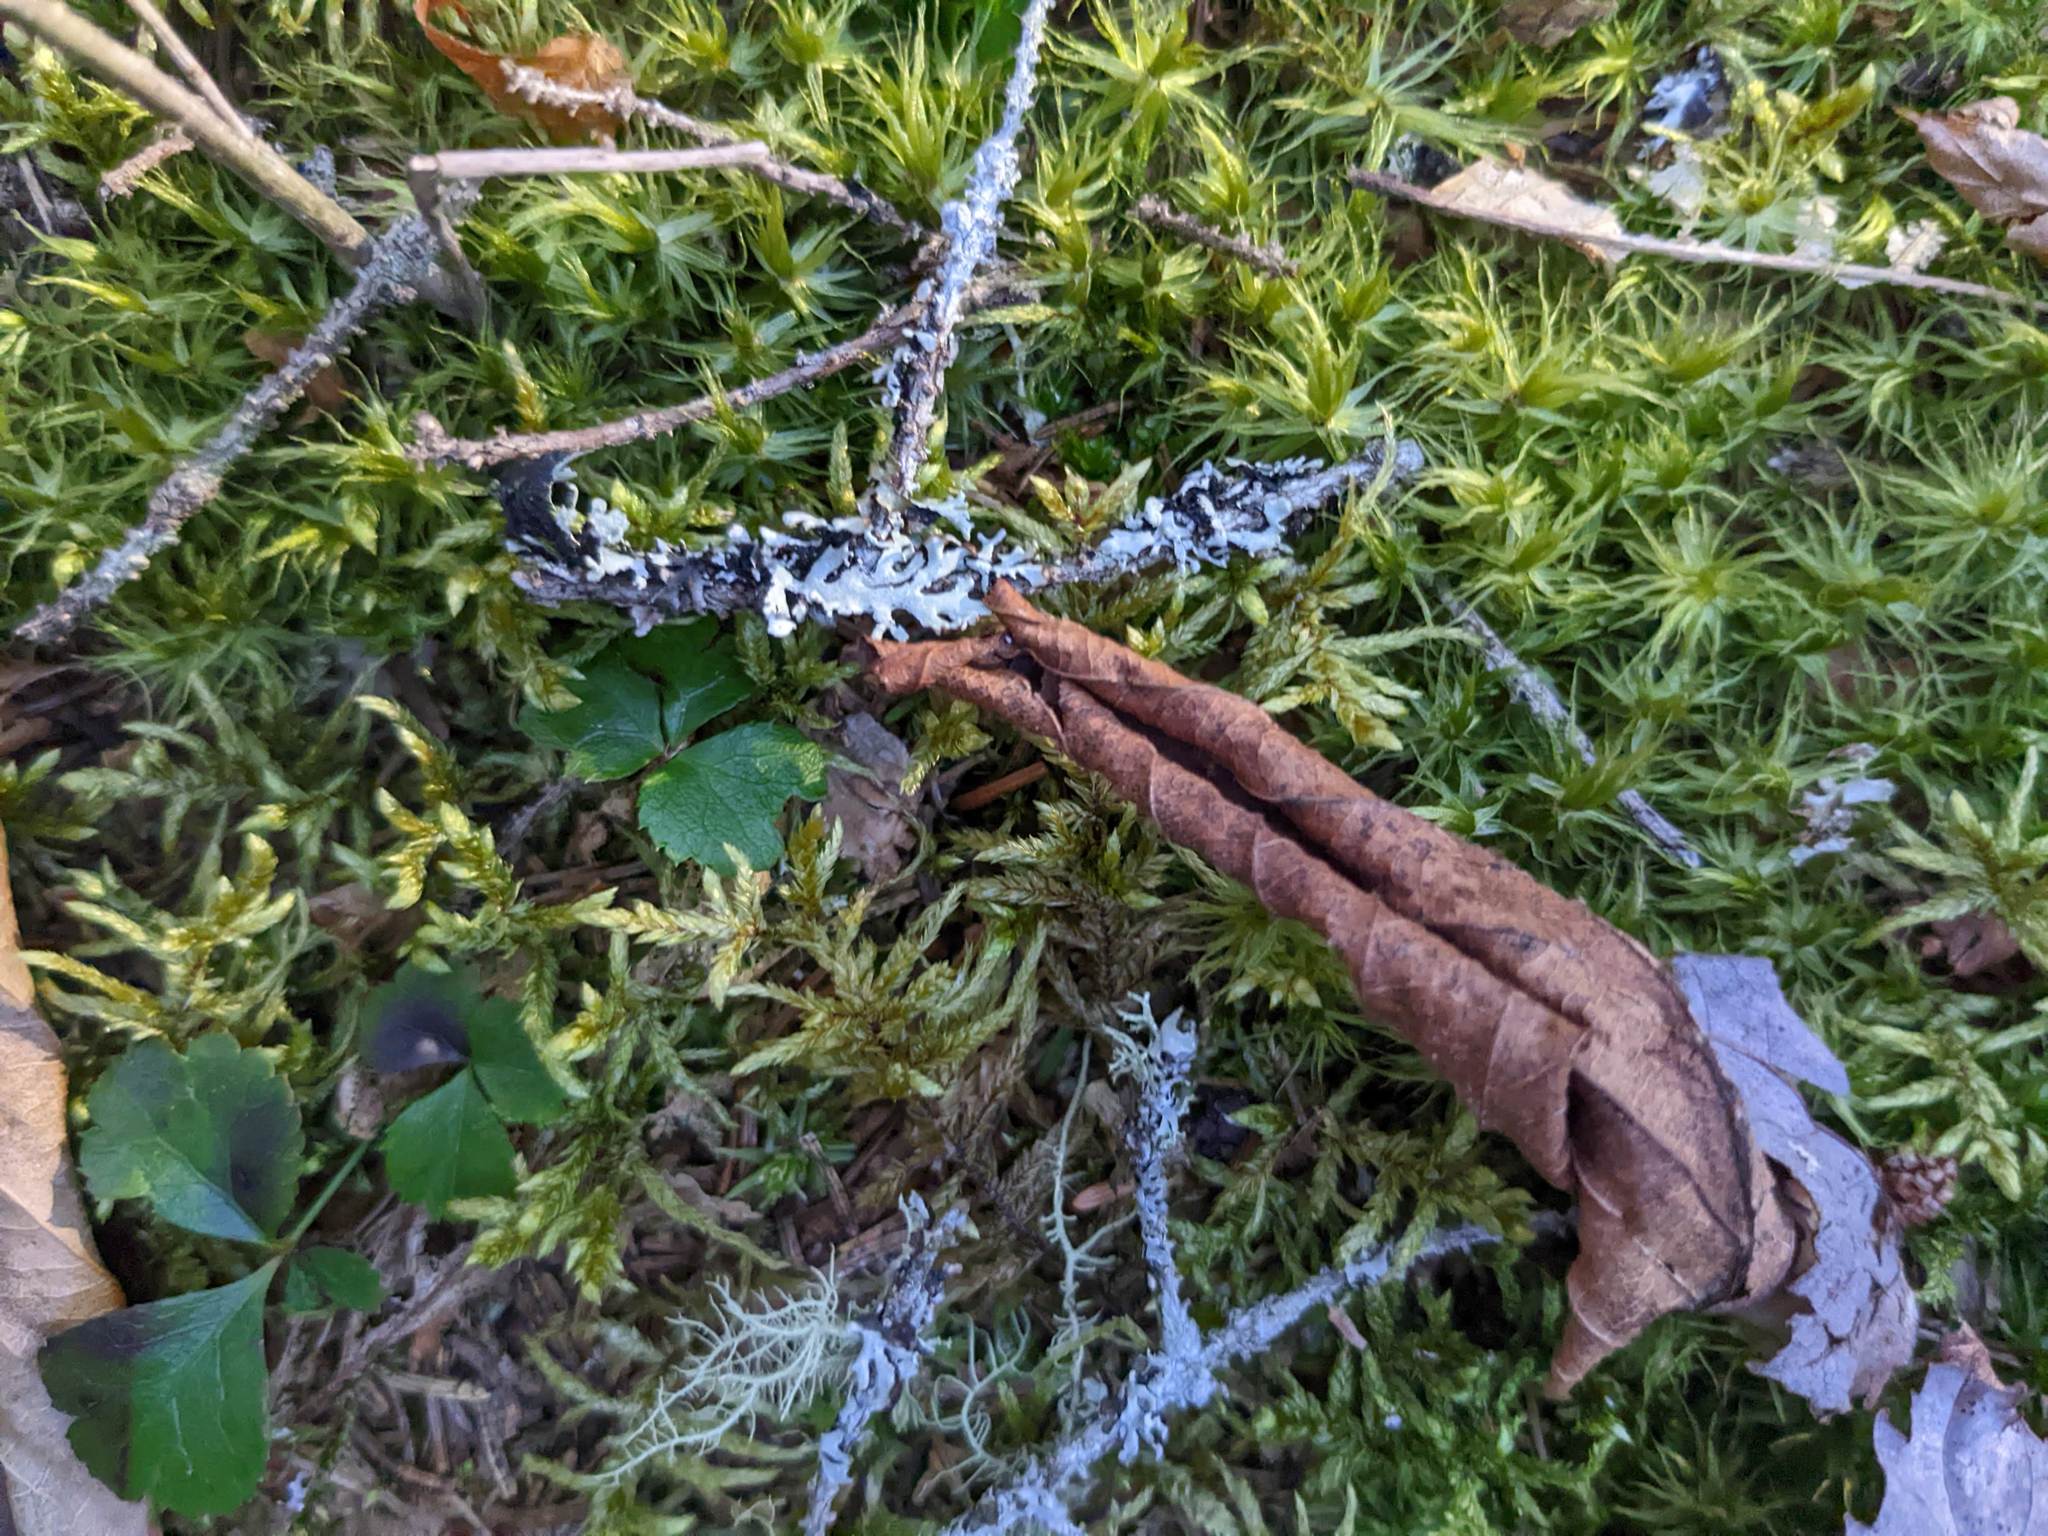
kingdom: Plantae
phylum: Tracheophyta
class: Magnoliopsida
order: Ranunculales
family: Ranunculaceae
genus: Coptis
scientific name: Coptis trifolia
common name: Canker-root
